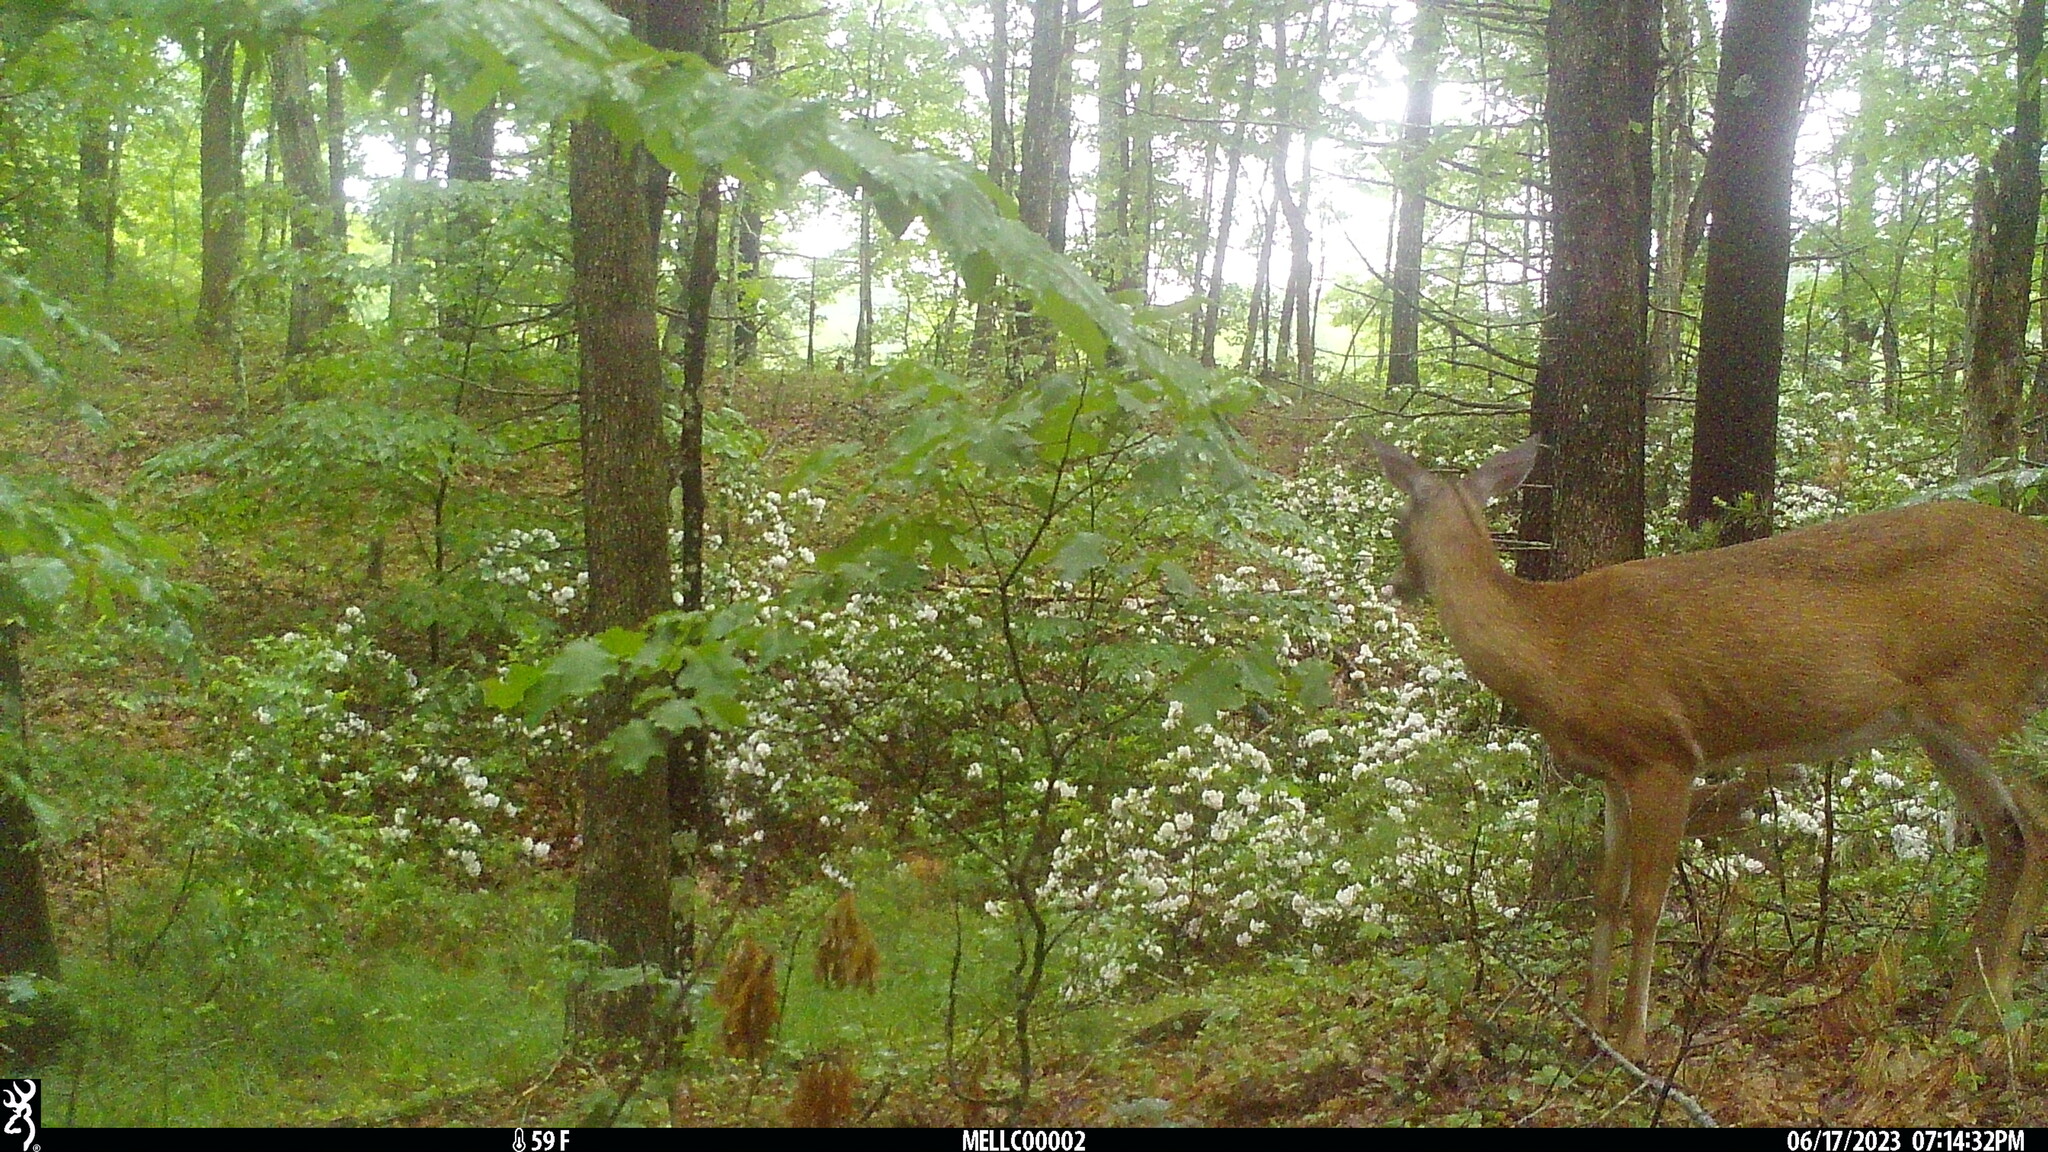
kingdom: Animalia
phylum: Chordata
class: Mammalia
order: Artiodactyla
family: Cervidae
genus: Odocoileus
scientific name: Odocoileus virginianus
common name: White-tailed deer
